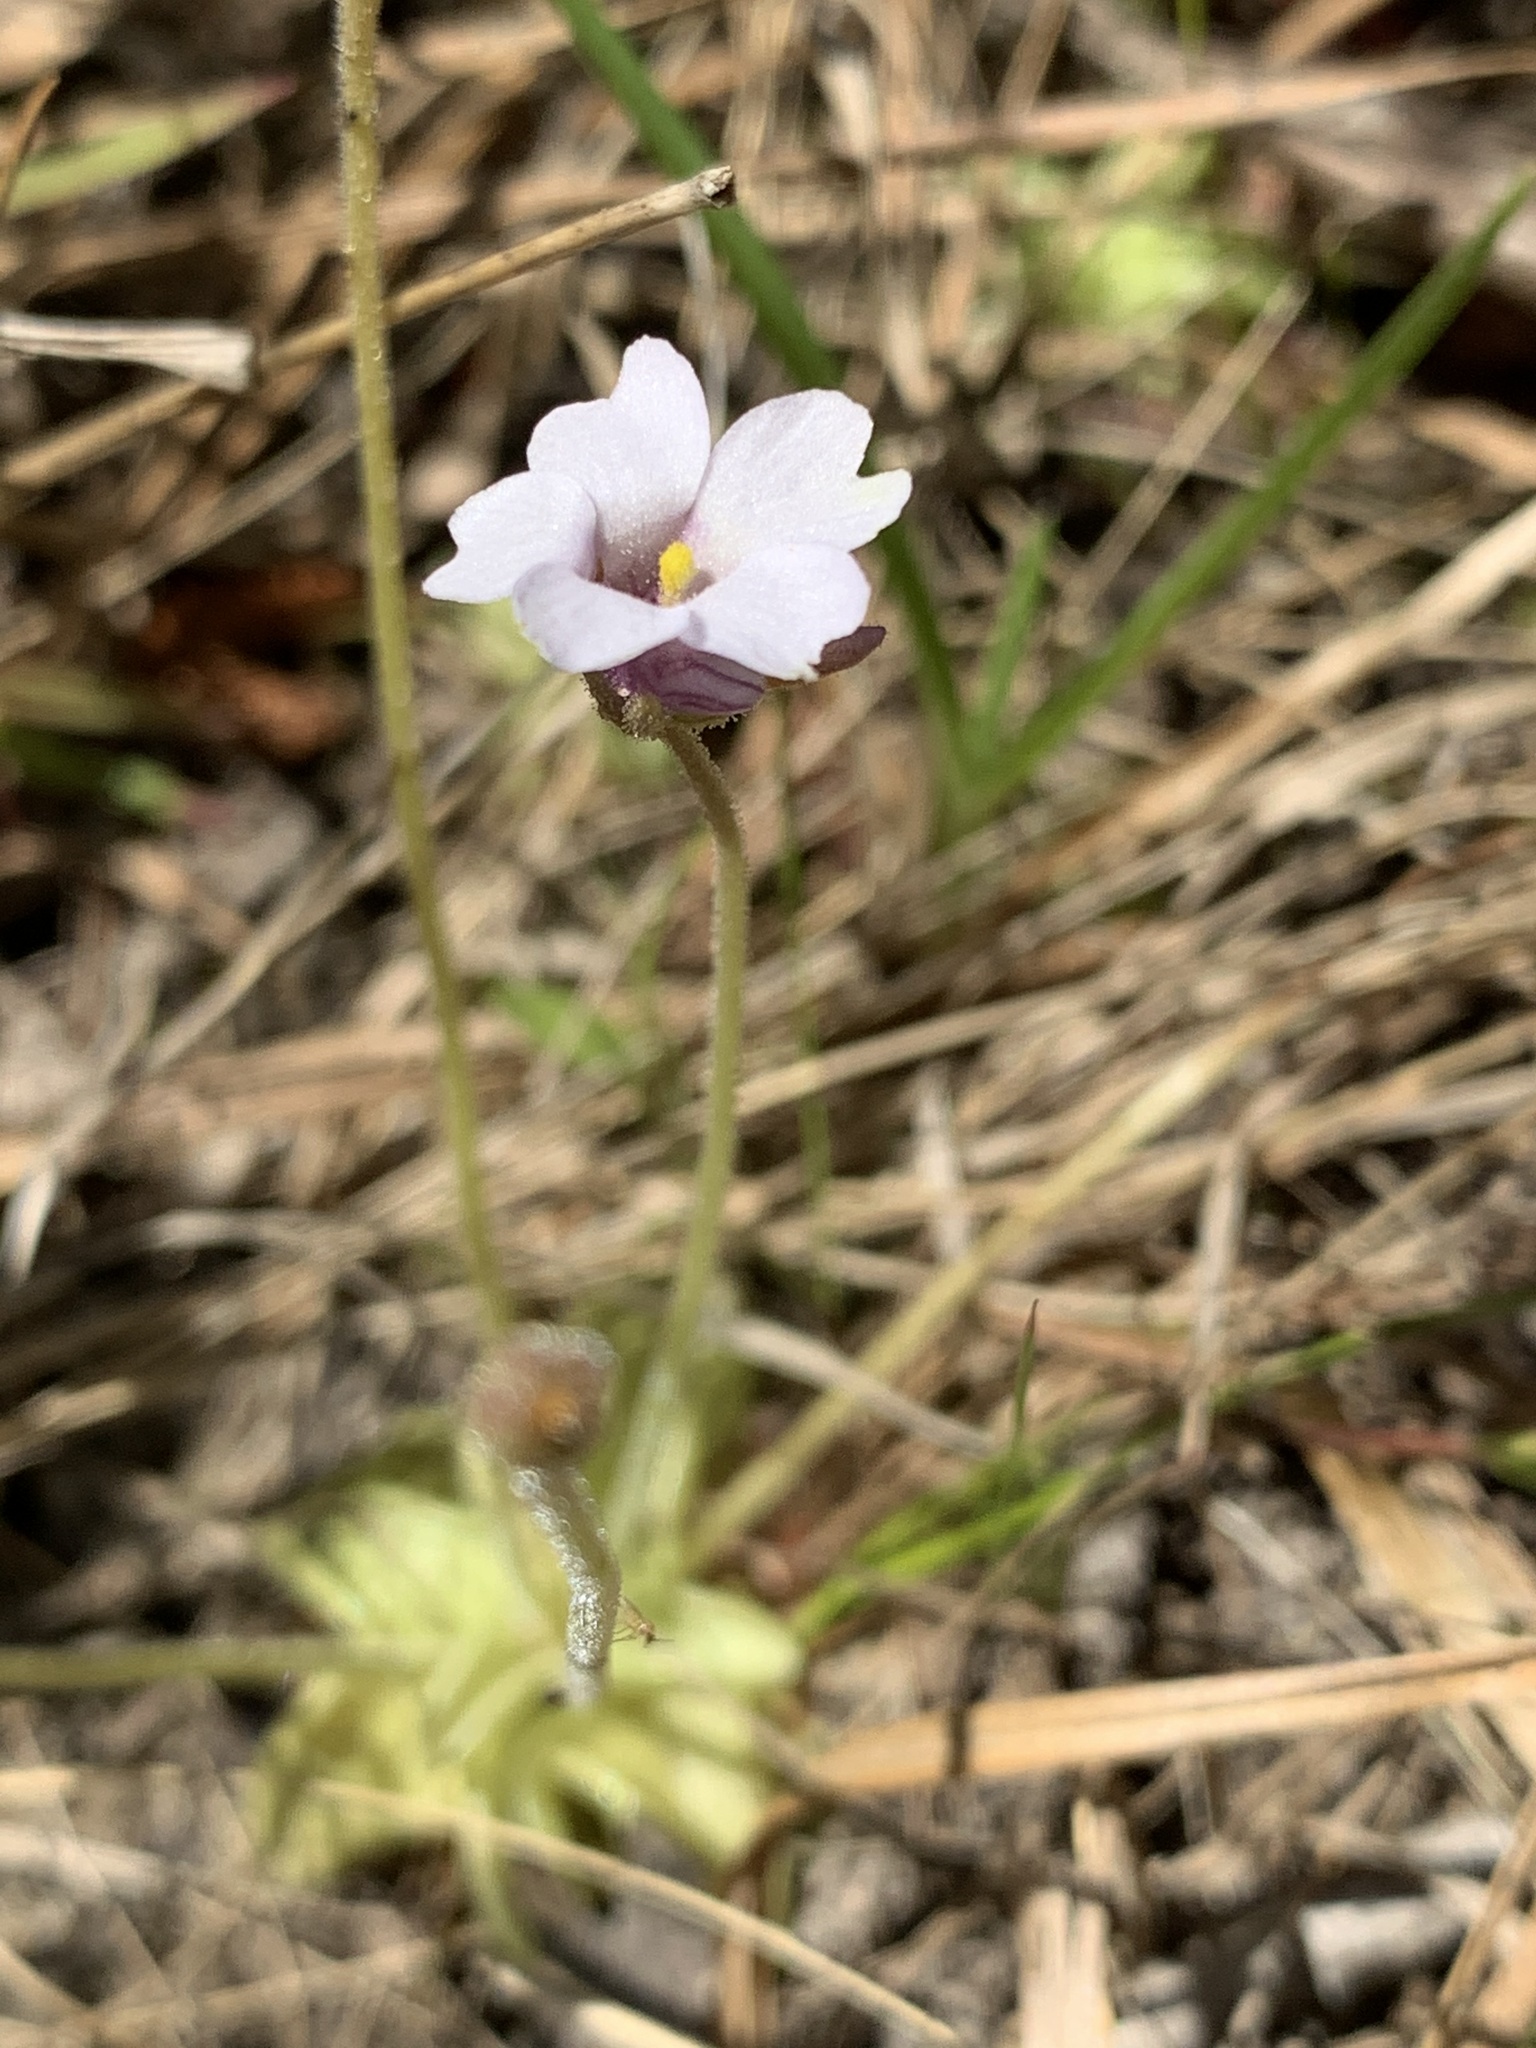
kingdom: Plantae
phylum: Tracheophyta
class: Magnoliopsida
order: Lamiales
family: Lentibulariaceae
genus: Pinguicula
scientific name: Pinguicula pumila
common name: Small butterwort
